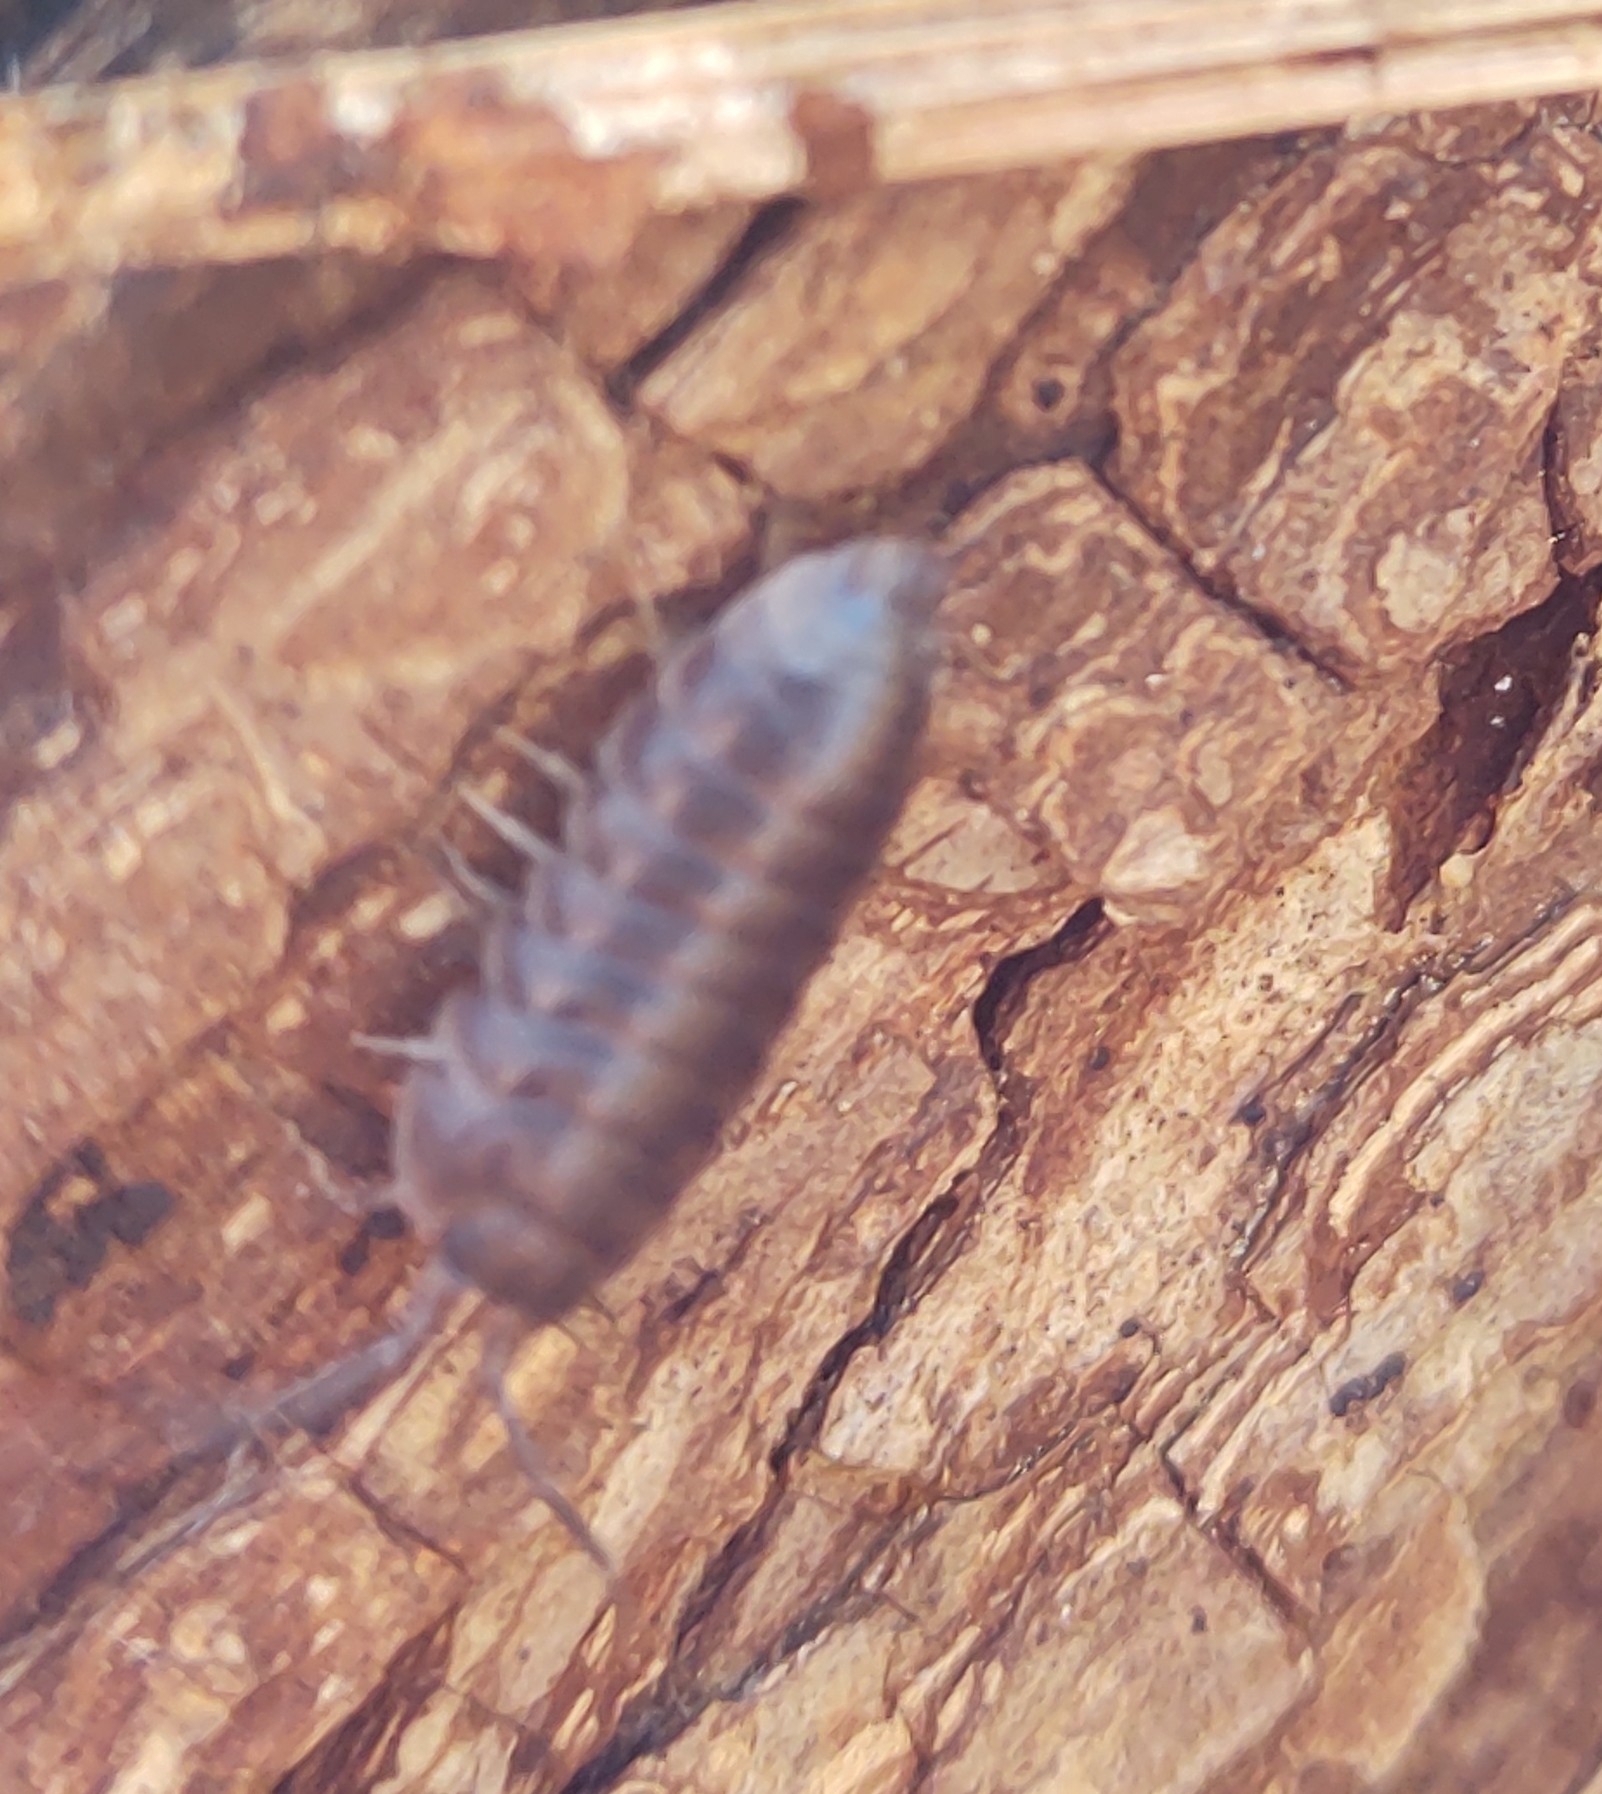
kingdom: Animalia
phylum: Arthropoda
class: Malacostraca
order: Isopoda
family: Cylisticidae
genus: Cylisticus
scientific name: Cylisticus convexus
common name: Curly woodlouse
